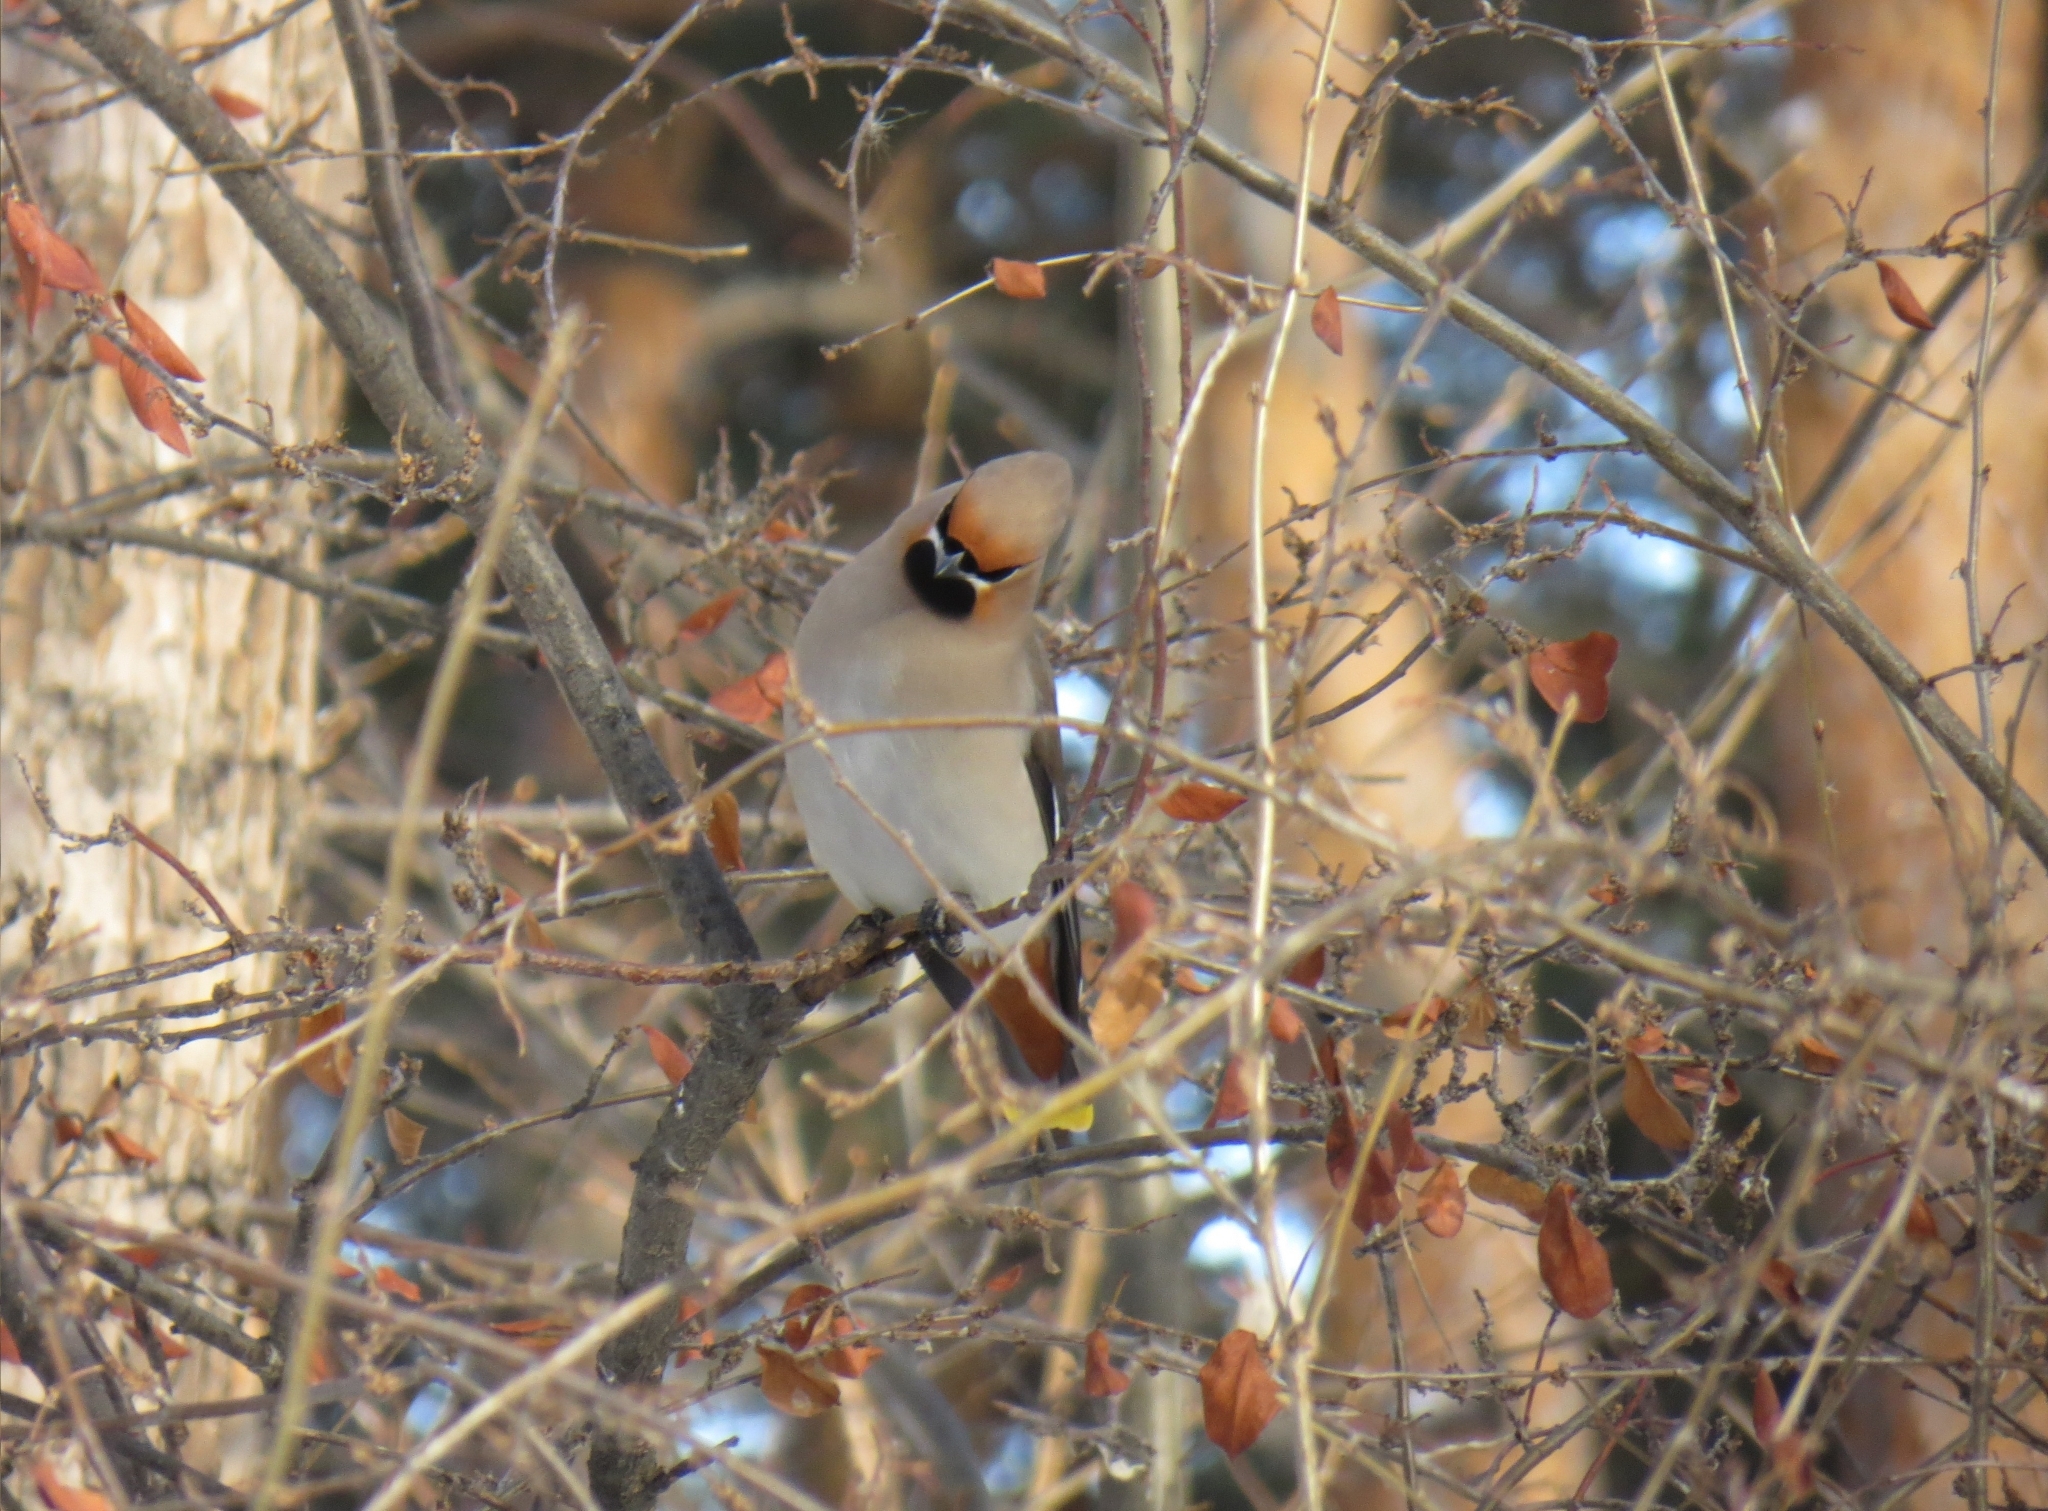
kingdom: Animalia
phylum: Chordata
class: Aves
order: Passeriformes
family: Bombycillidae
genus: Bombycilla
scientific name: Bombycilla garrulus
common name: Bohemian waxwing
